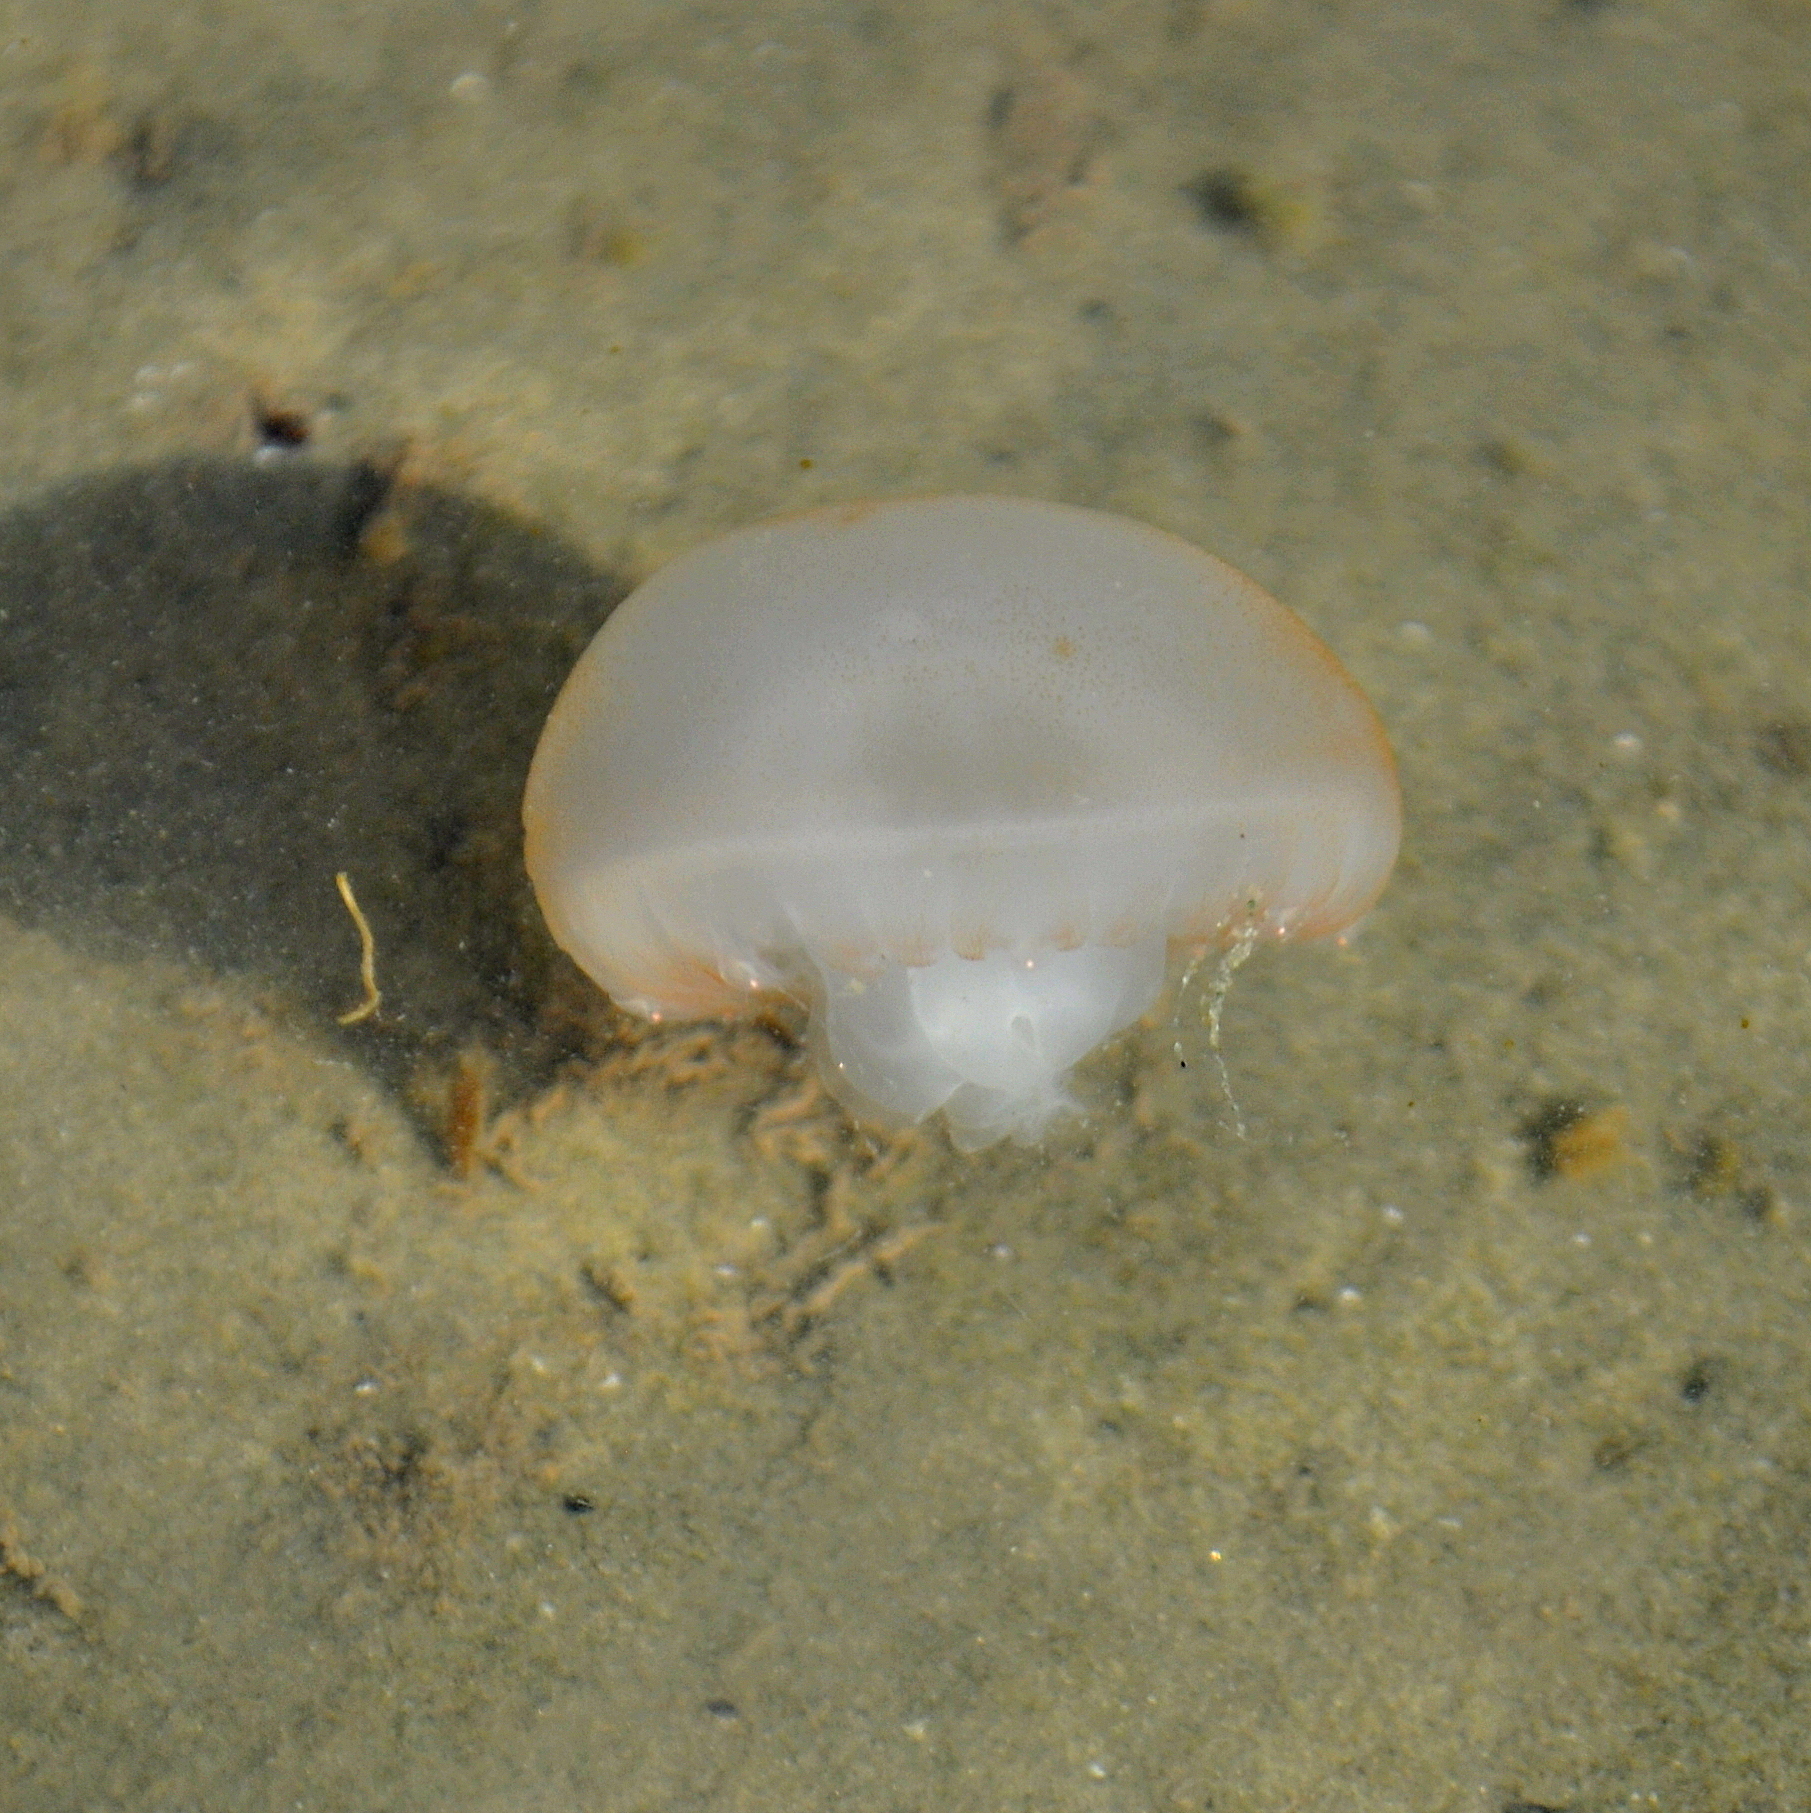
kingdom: Animalia
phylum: Cnidaria
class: Scyphozoa
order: Rhizostomeae
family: Lychnorhizidae
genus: Lychnorhiza
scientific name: Lychnorhiza lucerna
